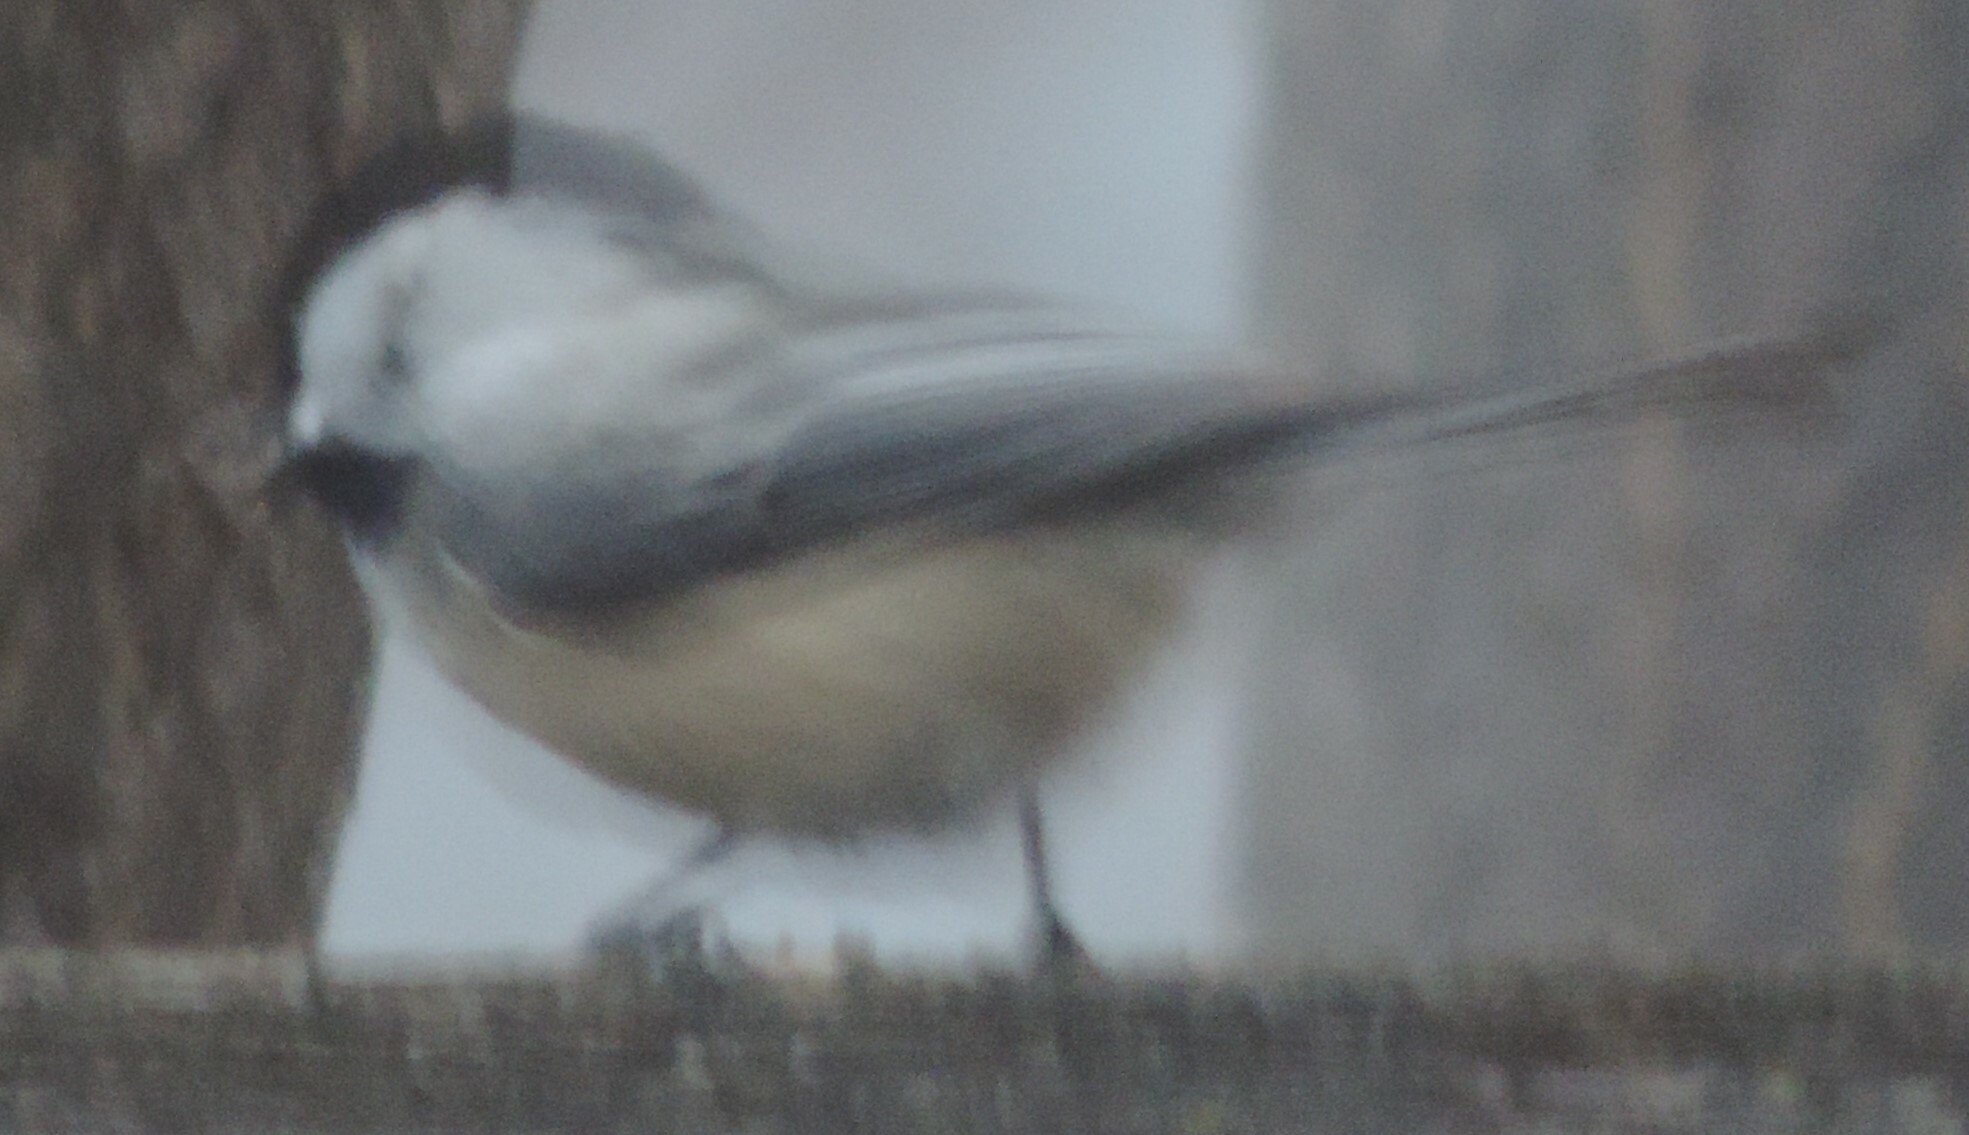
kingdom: Animalia
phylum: Chordata
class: Aves
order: Passeriformes
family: Paridae
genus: Poecile
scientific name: Poecile atricapillus
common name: Black-capped chickadee
